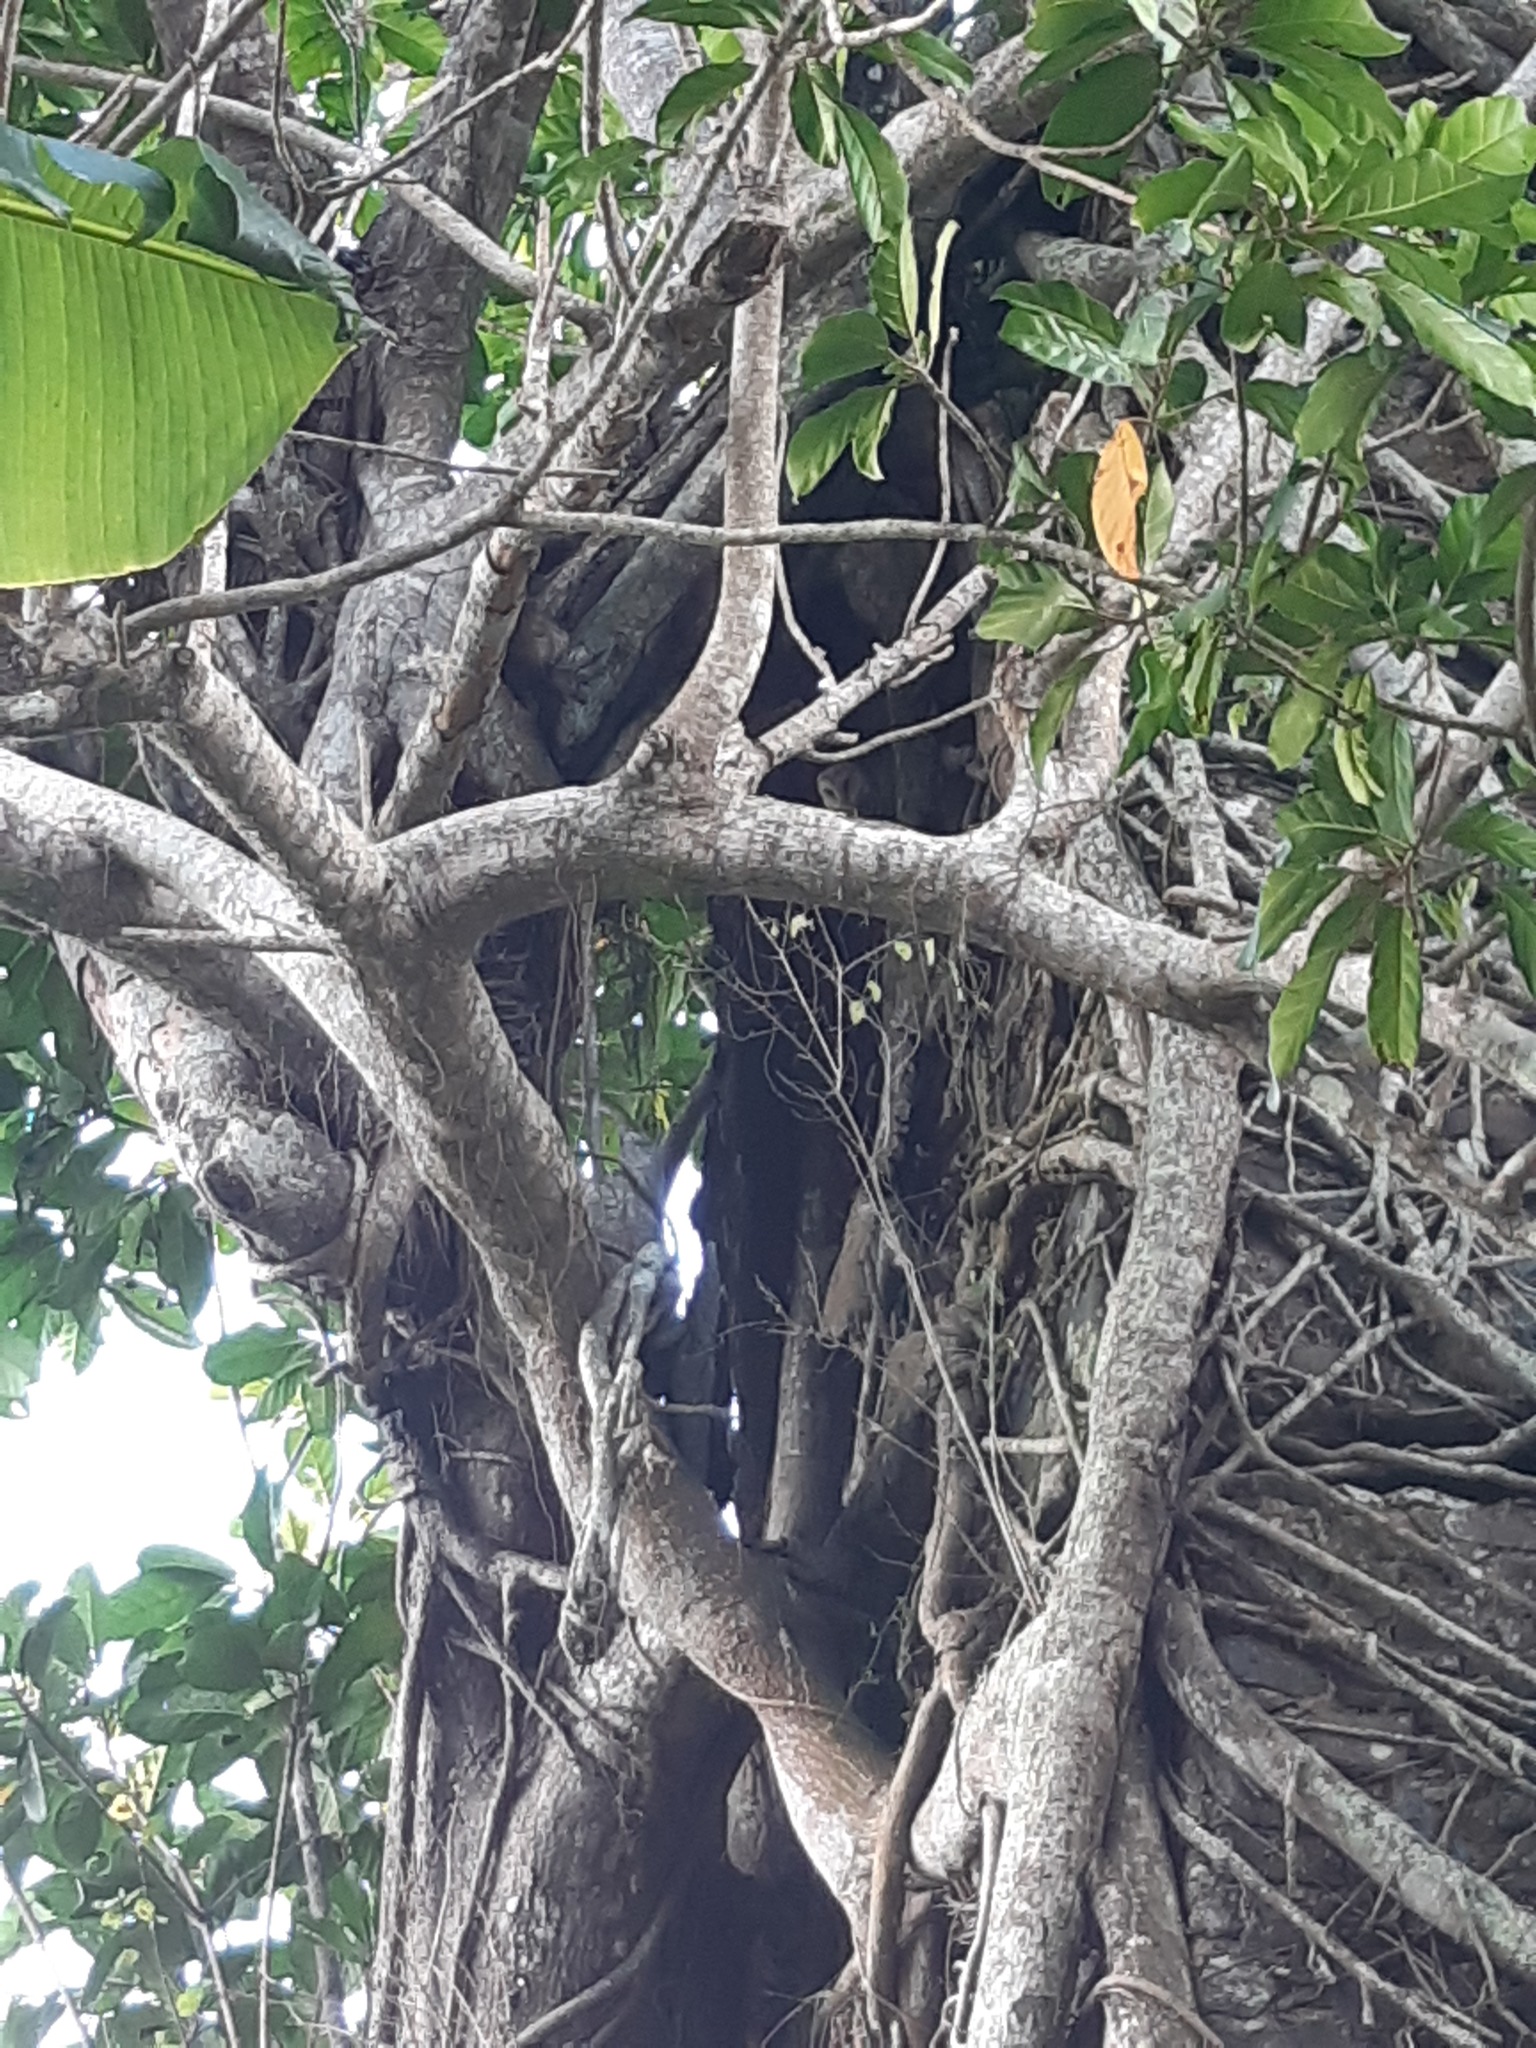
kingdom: Animalia
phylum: Chordata
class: Aves
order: Strigiformes
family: Tytonidae
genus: Tyto
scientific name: Tyto alba
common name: Barn owl
